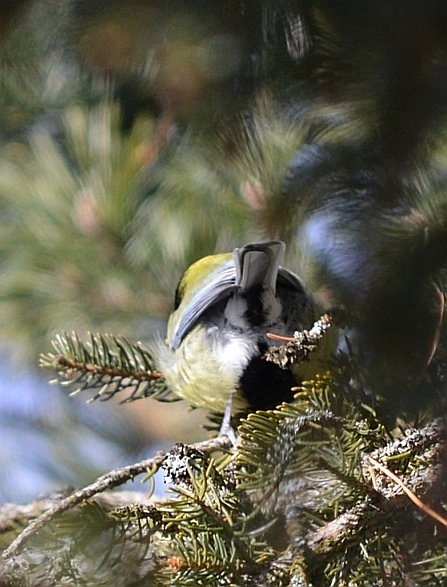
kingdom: Animalia
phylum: Chordata
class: Aves
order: Passeriformes
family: Paridae
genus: Parus
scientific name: Parus major
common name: Great tit
